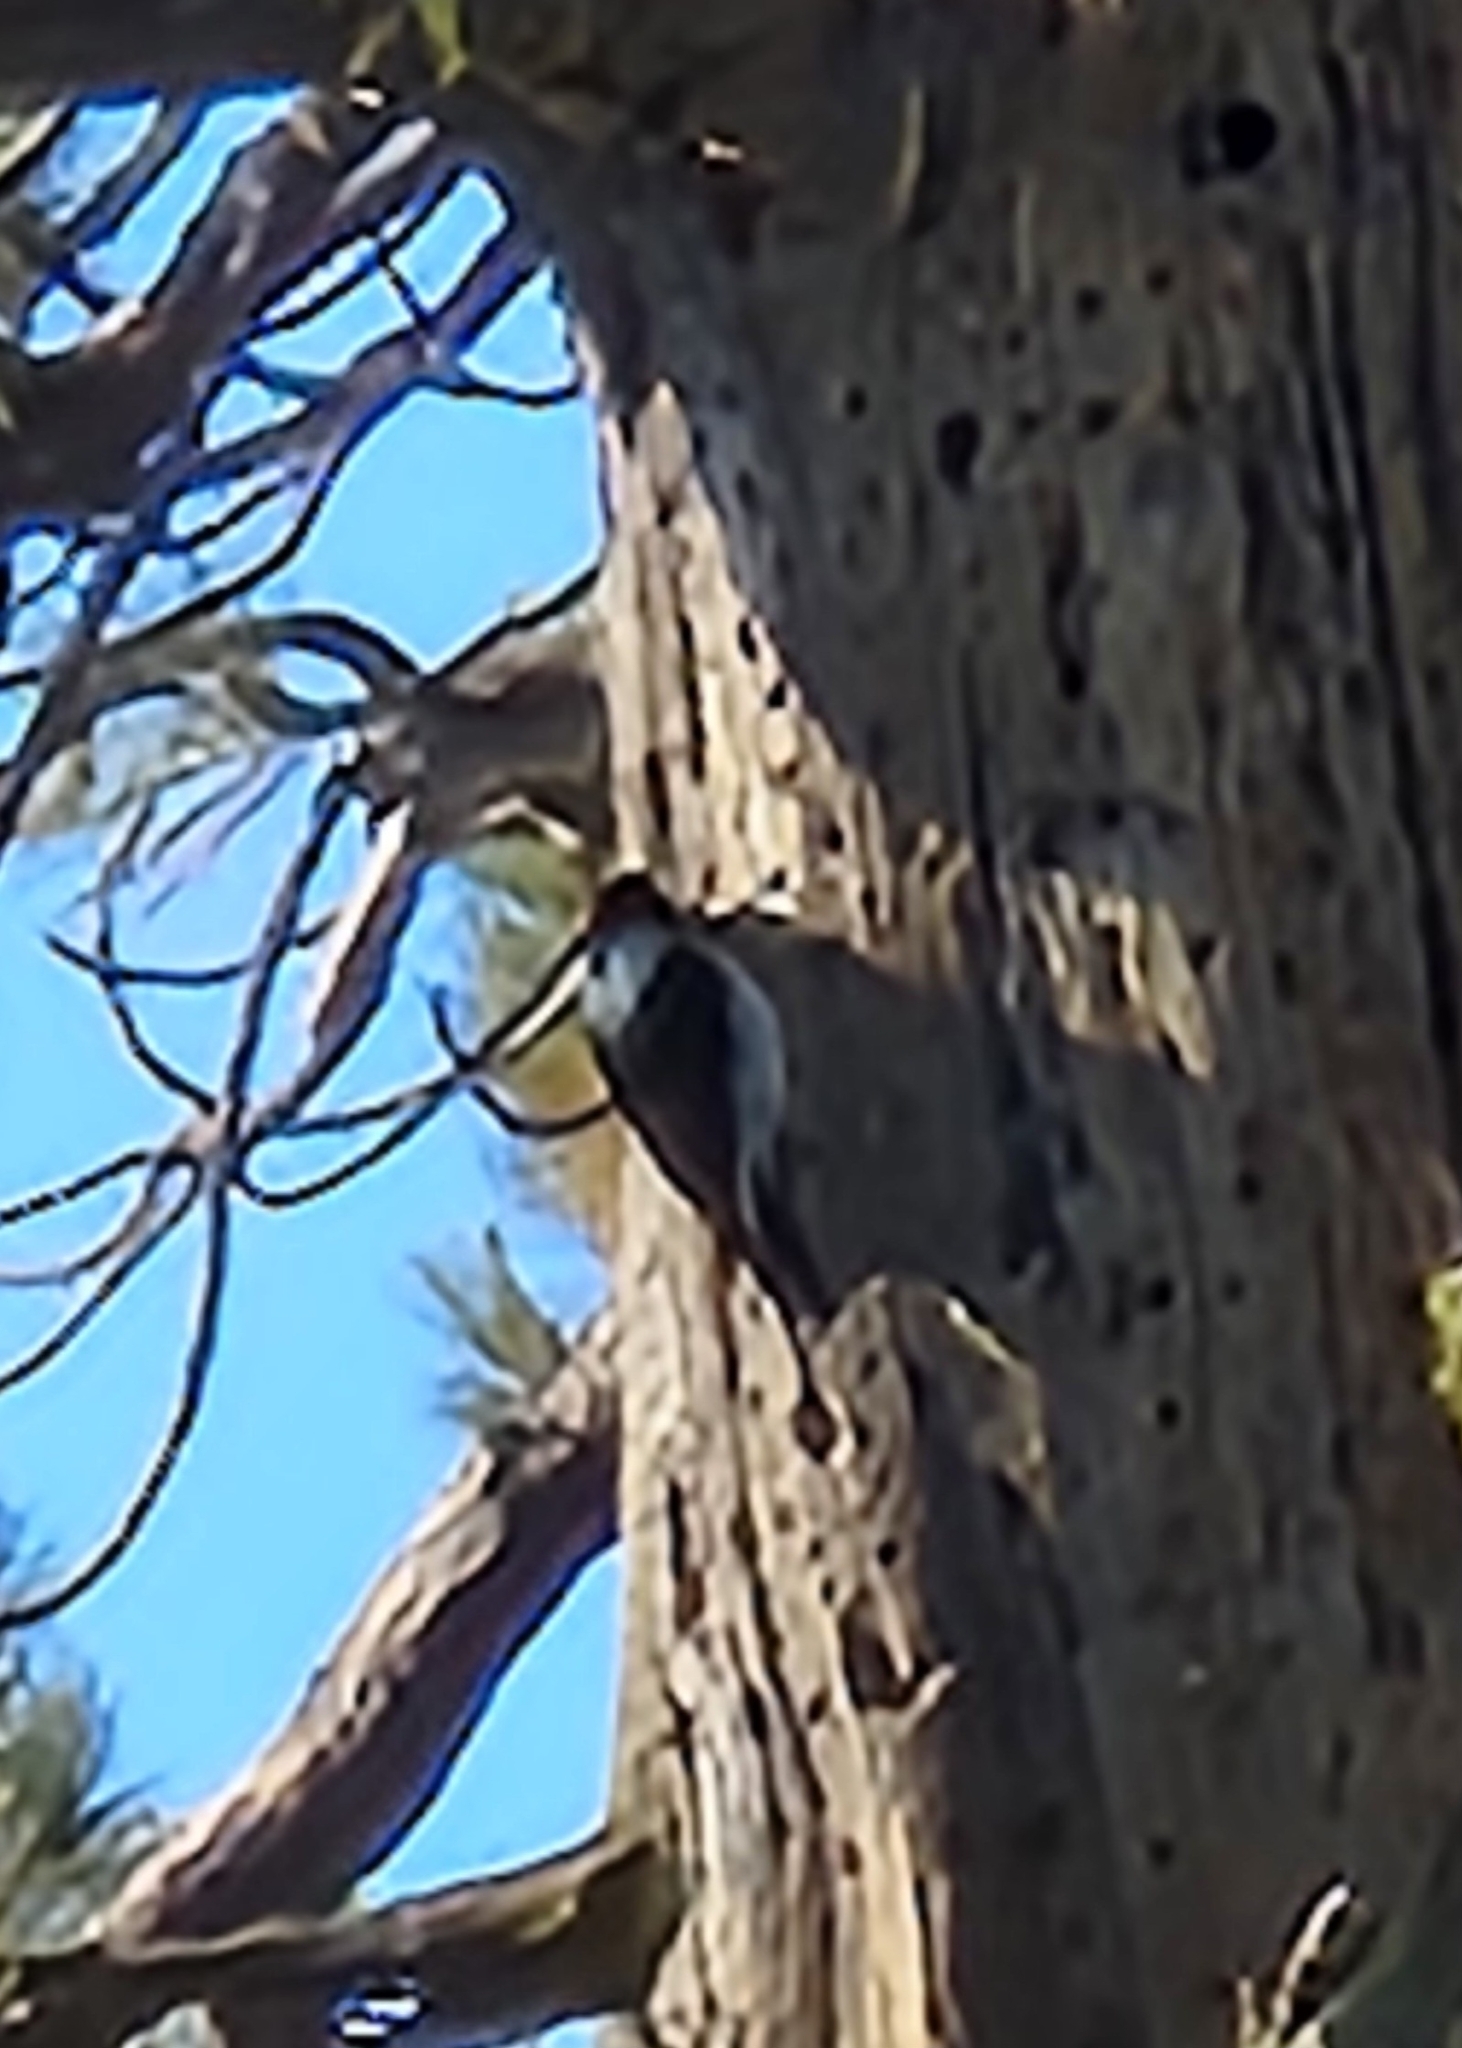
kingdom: Animalia
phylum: Chordata
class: Aves
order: Piciformes
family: Picidae
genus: Melanerpes
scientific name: Melanerpes formicivorus
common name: Acorn woodpecker
